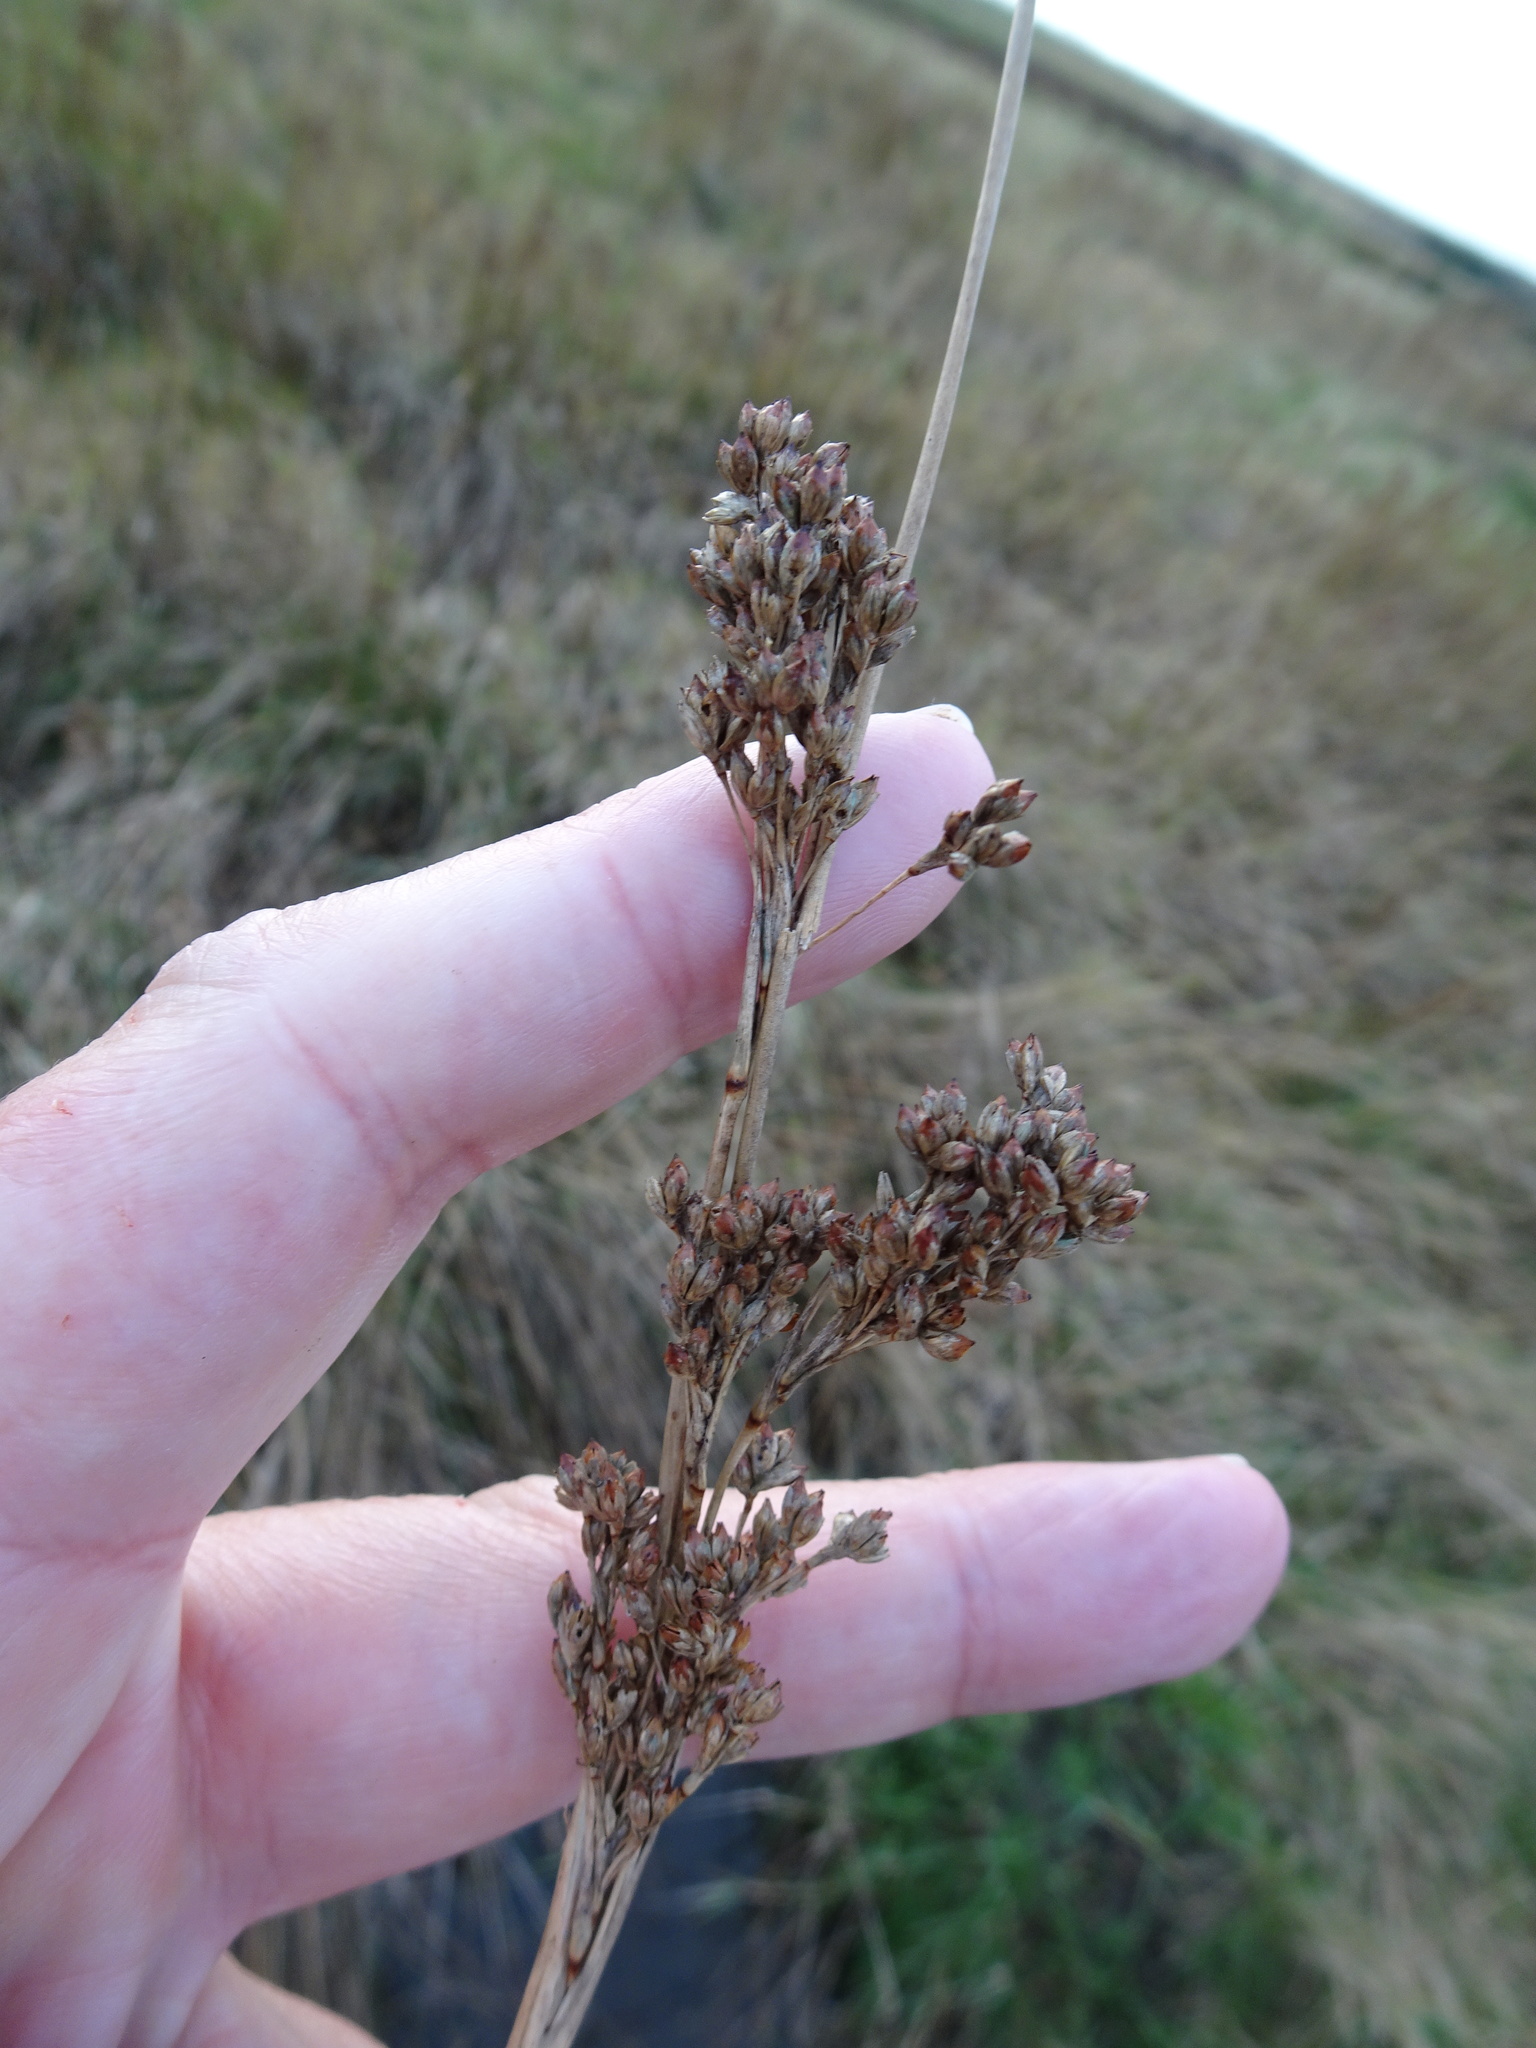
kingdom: Plantae
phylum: Tracheophyta
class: Liliopsida
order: Poales
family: Juncaceae
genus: Juncus
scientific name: Juncus maritimus
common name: Sea rush
